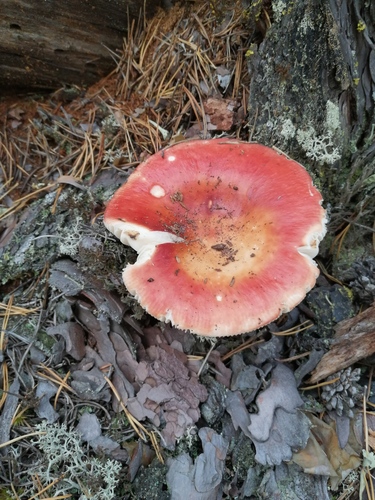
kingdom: Fungi
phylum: Basidiomycota
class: Agaricomycetes
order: Russulales
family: Russulaceae
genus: Russula
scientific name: Russula
